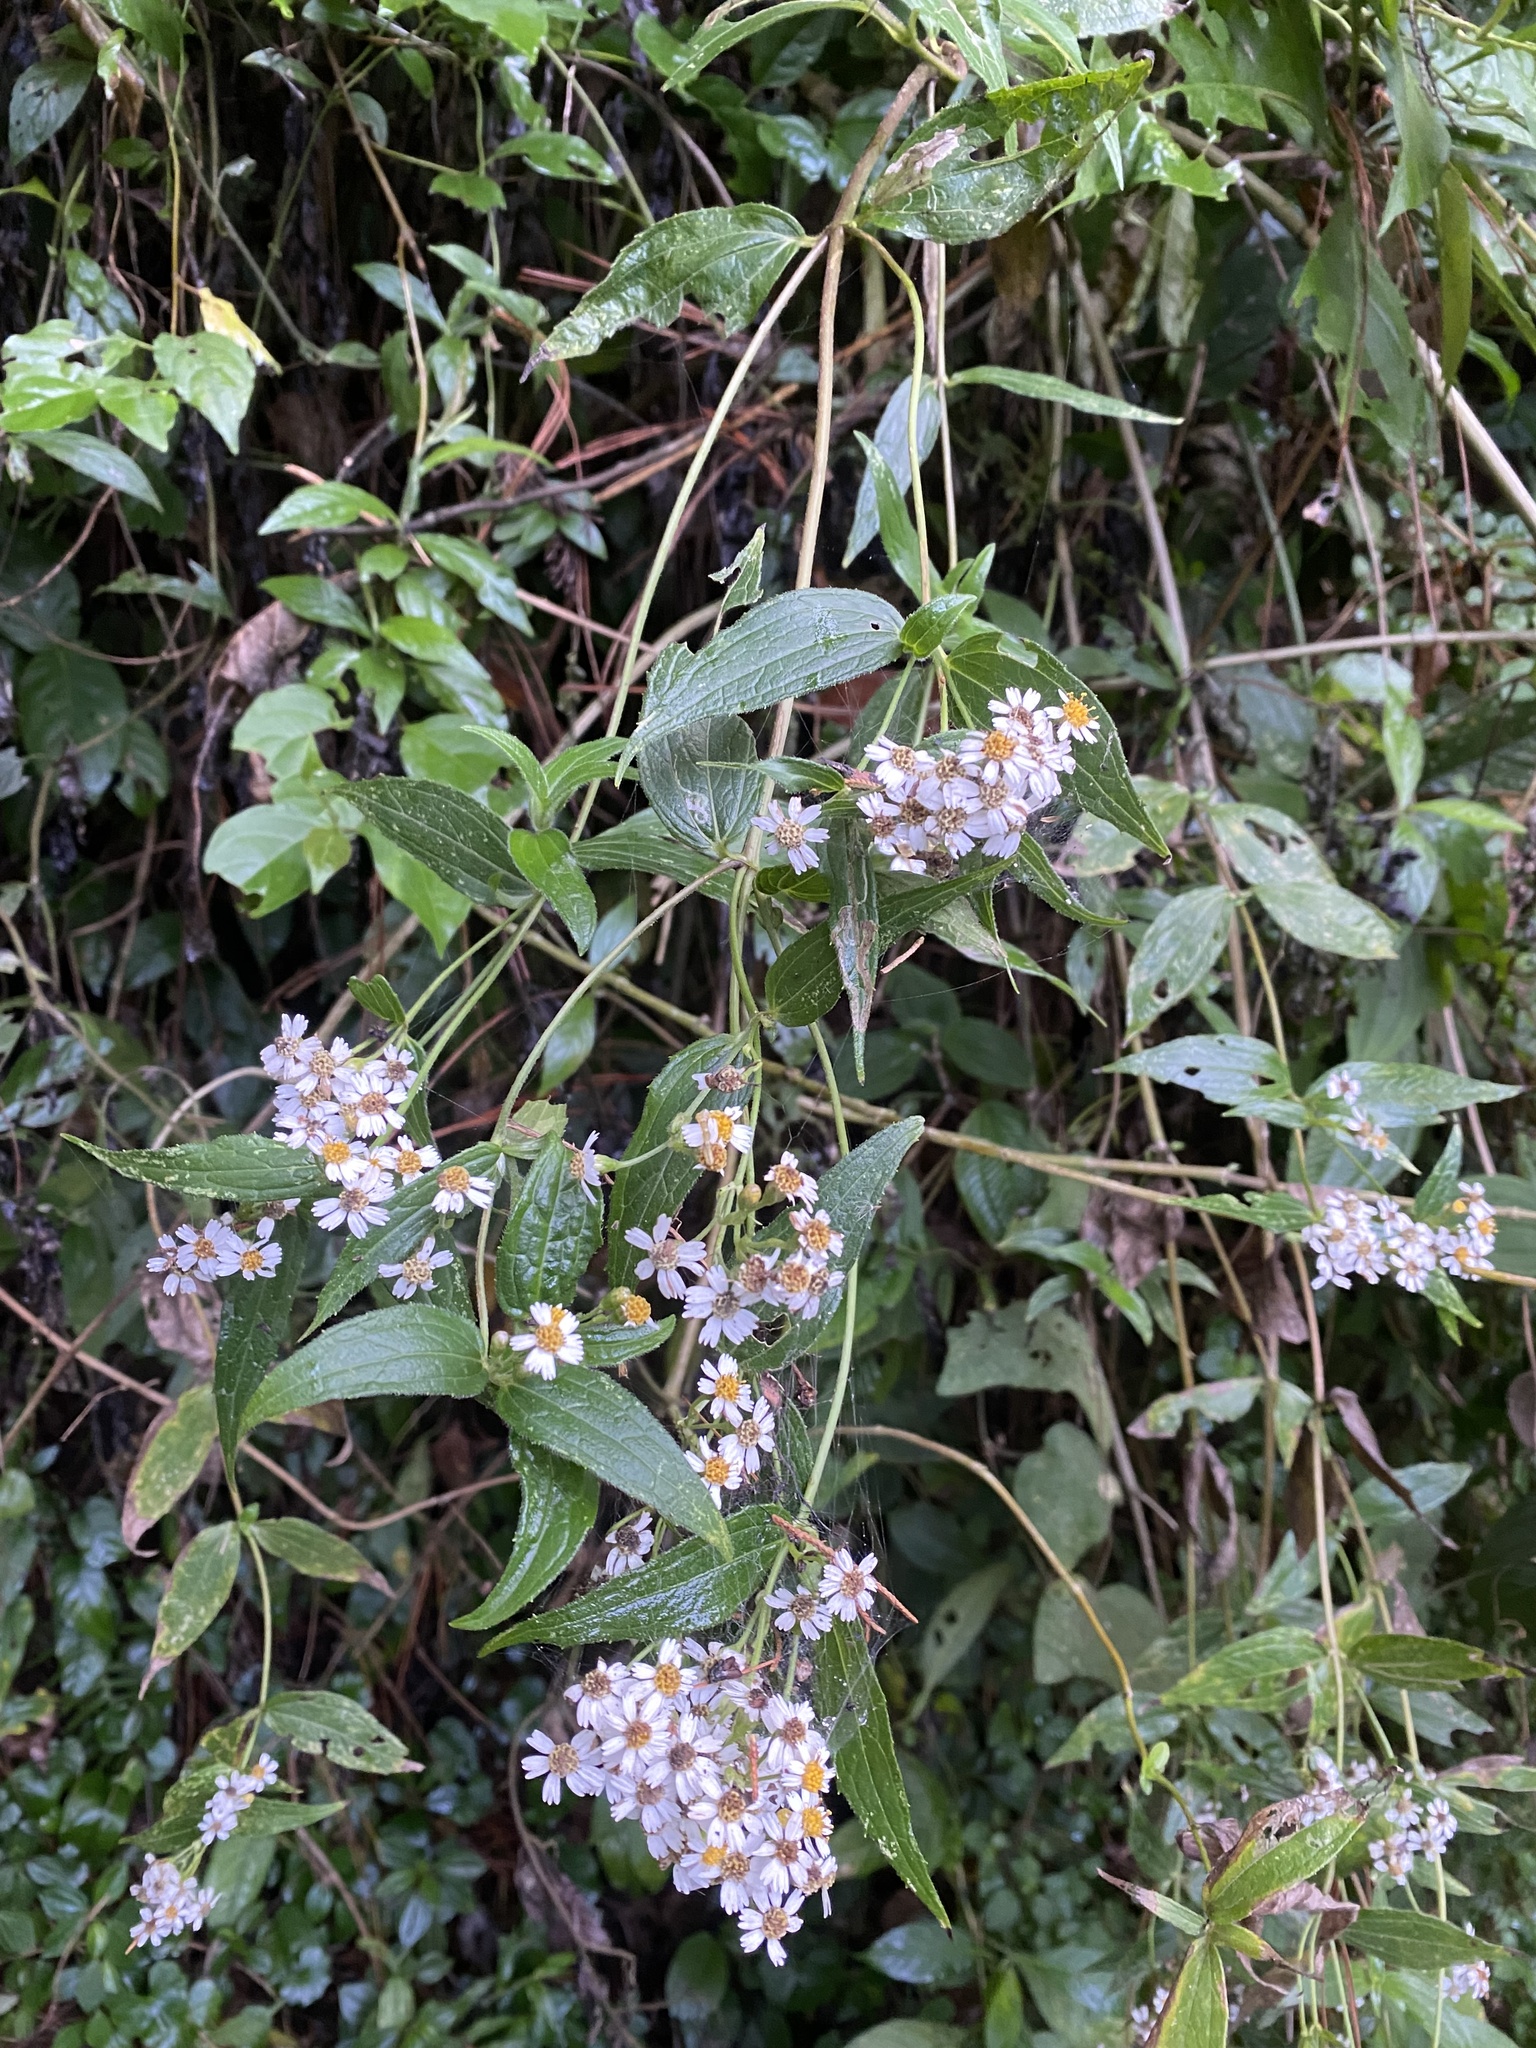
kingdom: Plantae
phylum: Tracheophyta
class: Magnoliopsida
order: Asterales
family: Asteraceae
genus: Alloispermum
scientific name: Alloispermum integrifolium
